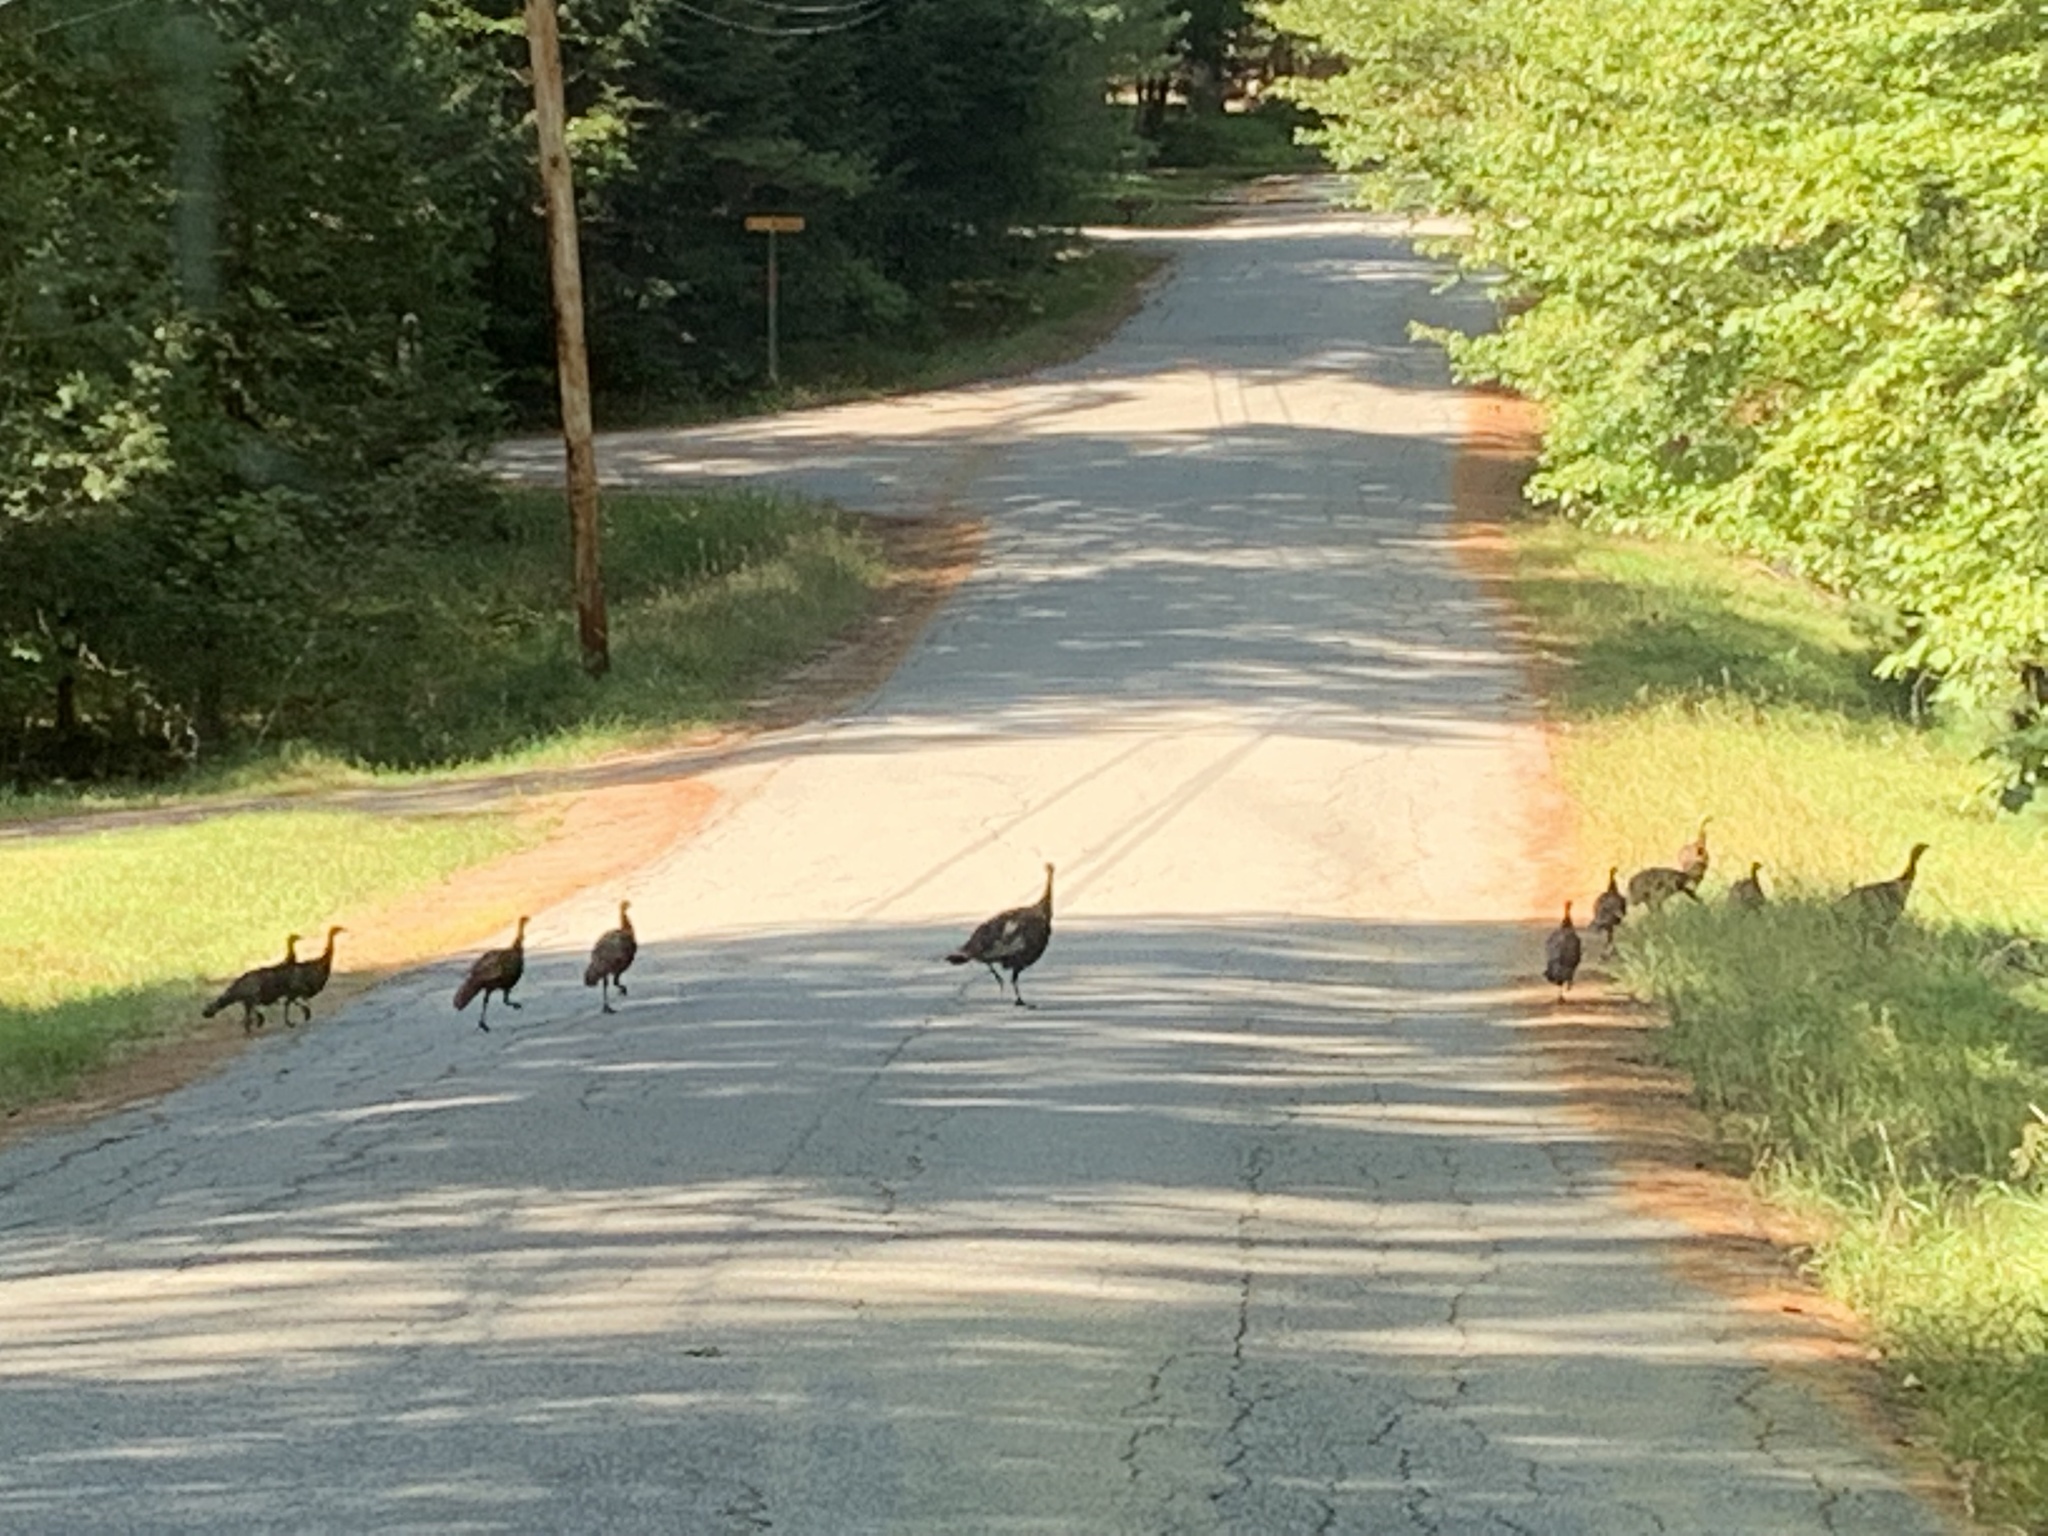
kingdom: Animalia
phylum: Chordata
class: Aves
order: Galliformes
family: Phasianidae
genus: Meleagris
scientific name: Meleagris gallopavo
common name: Wild turkey
